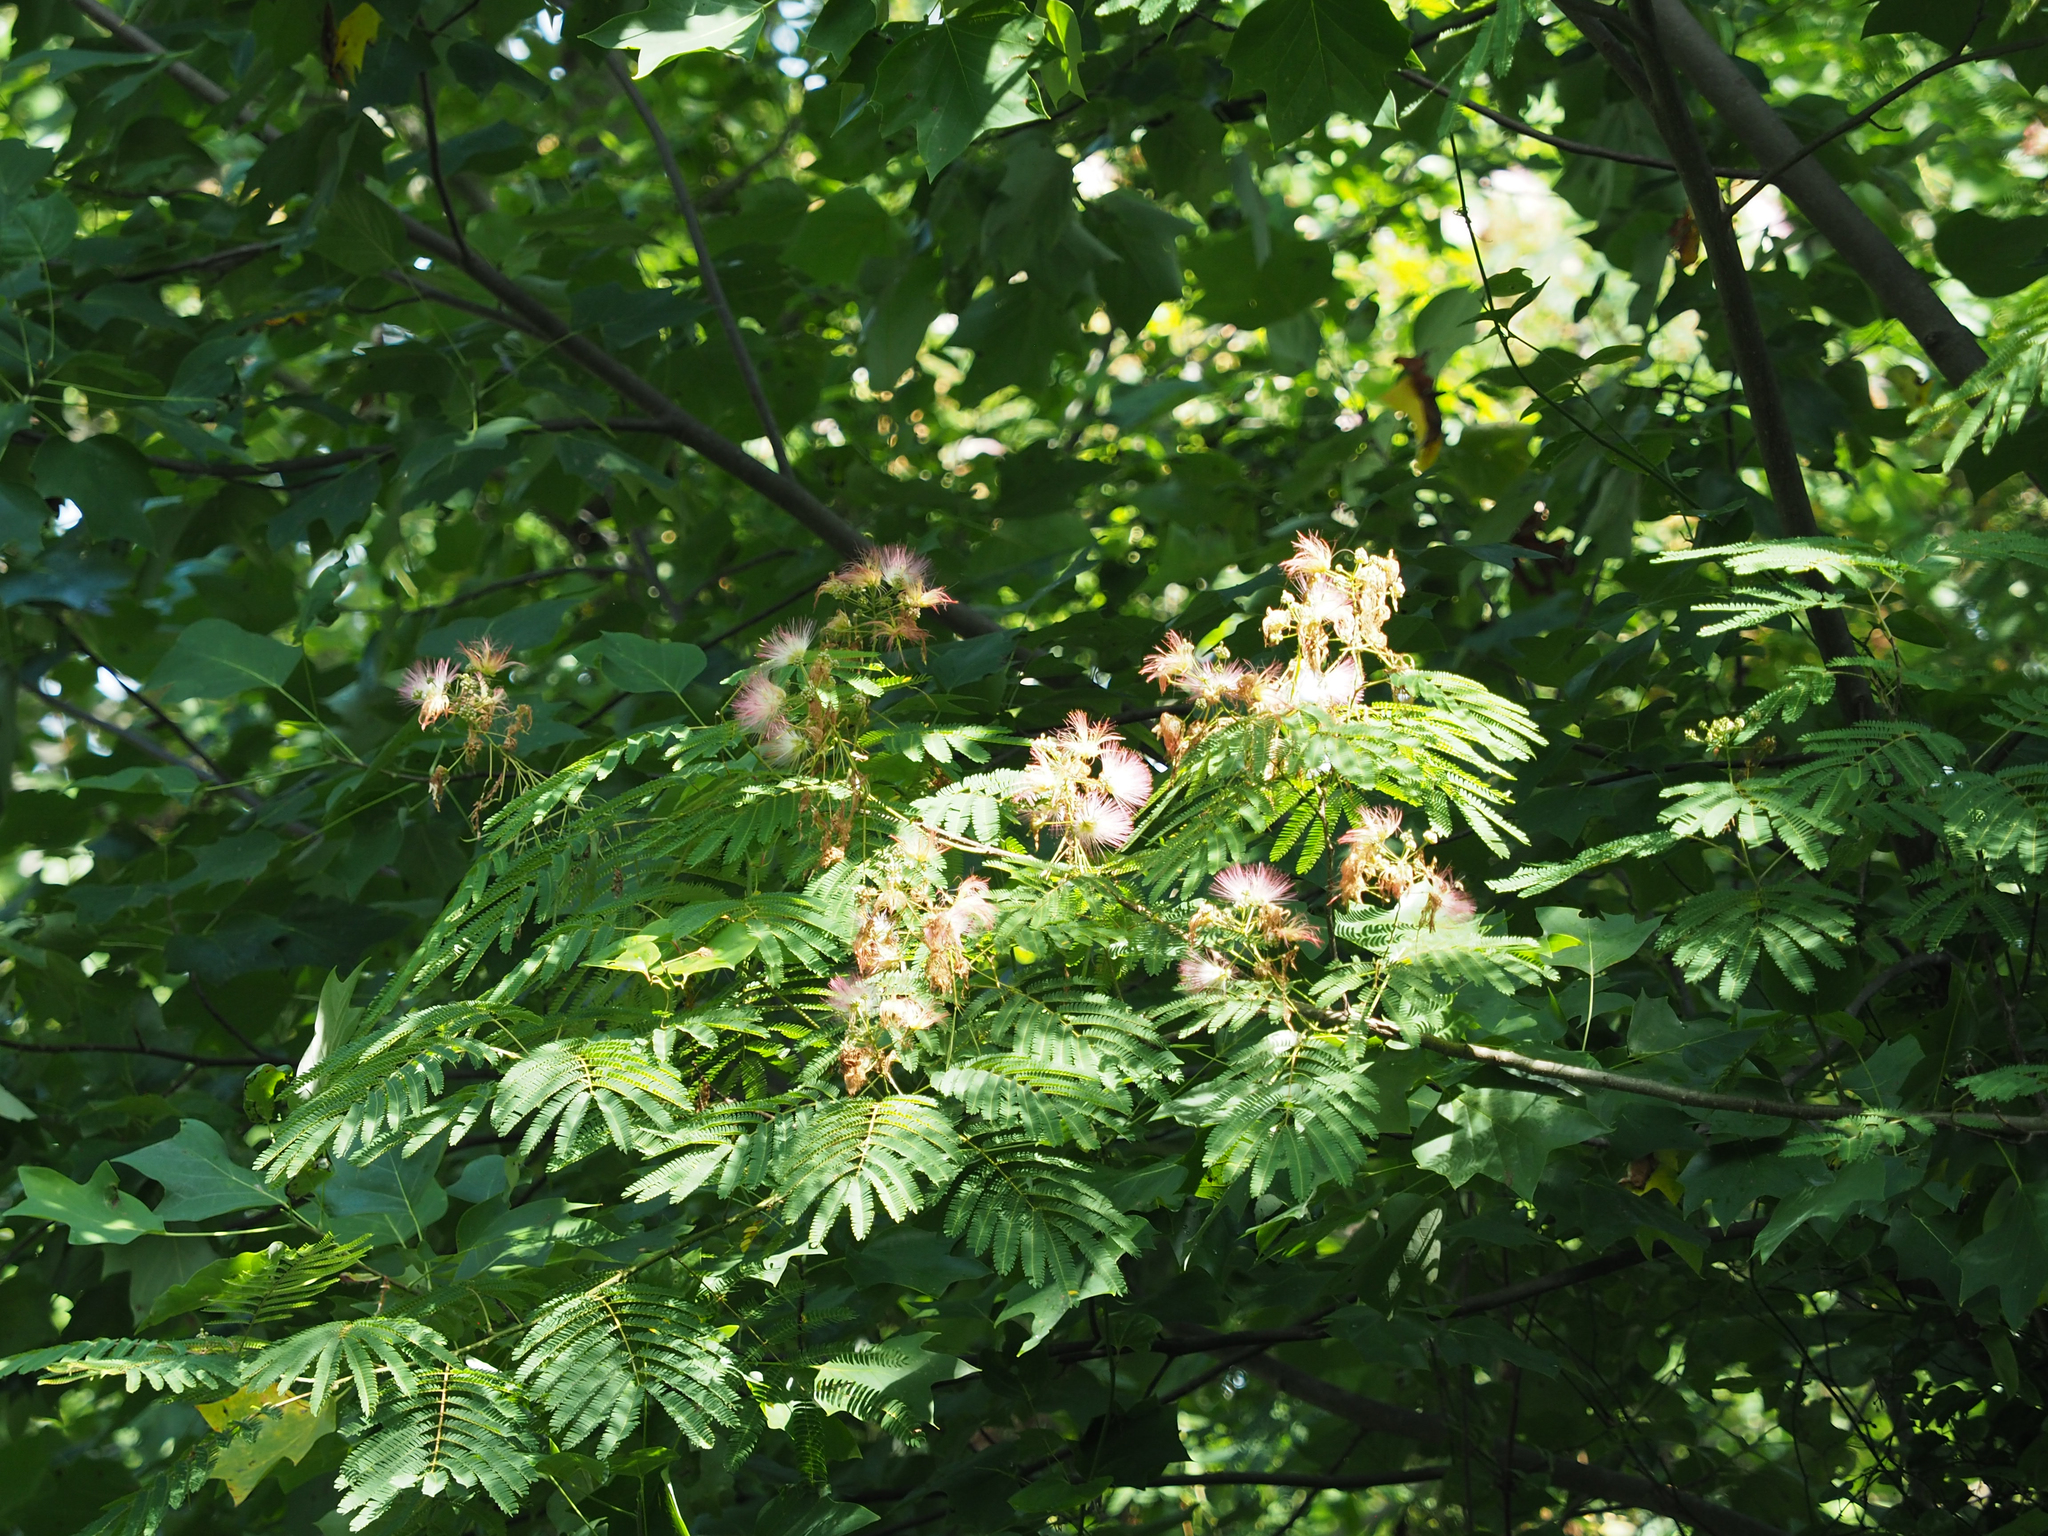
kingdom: Plantae
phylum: Tracheophyta
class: Magnoliopsida
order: Fabales
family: Fabaceae
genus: Albizia
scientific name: Albizia julibrissin
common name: Silktree
